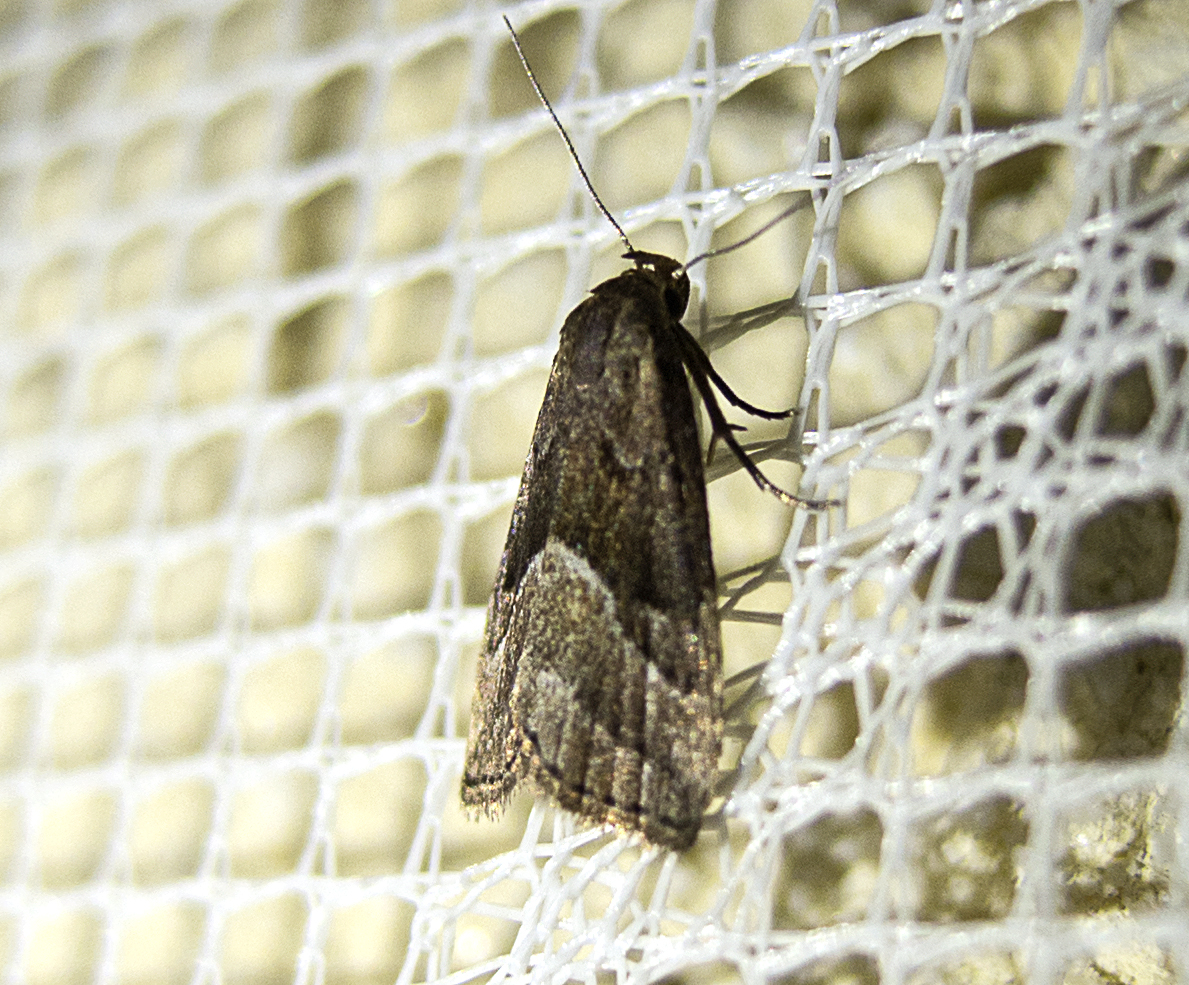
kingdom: Animalia
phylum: Arthropoda
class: Insecta
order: Lepidoptera
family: Erebidae
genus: Schrankia
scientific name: Schrankia taenialis
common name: White-line snout
